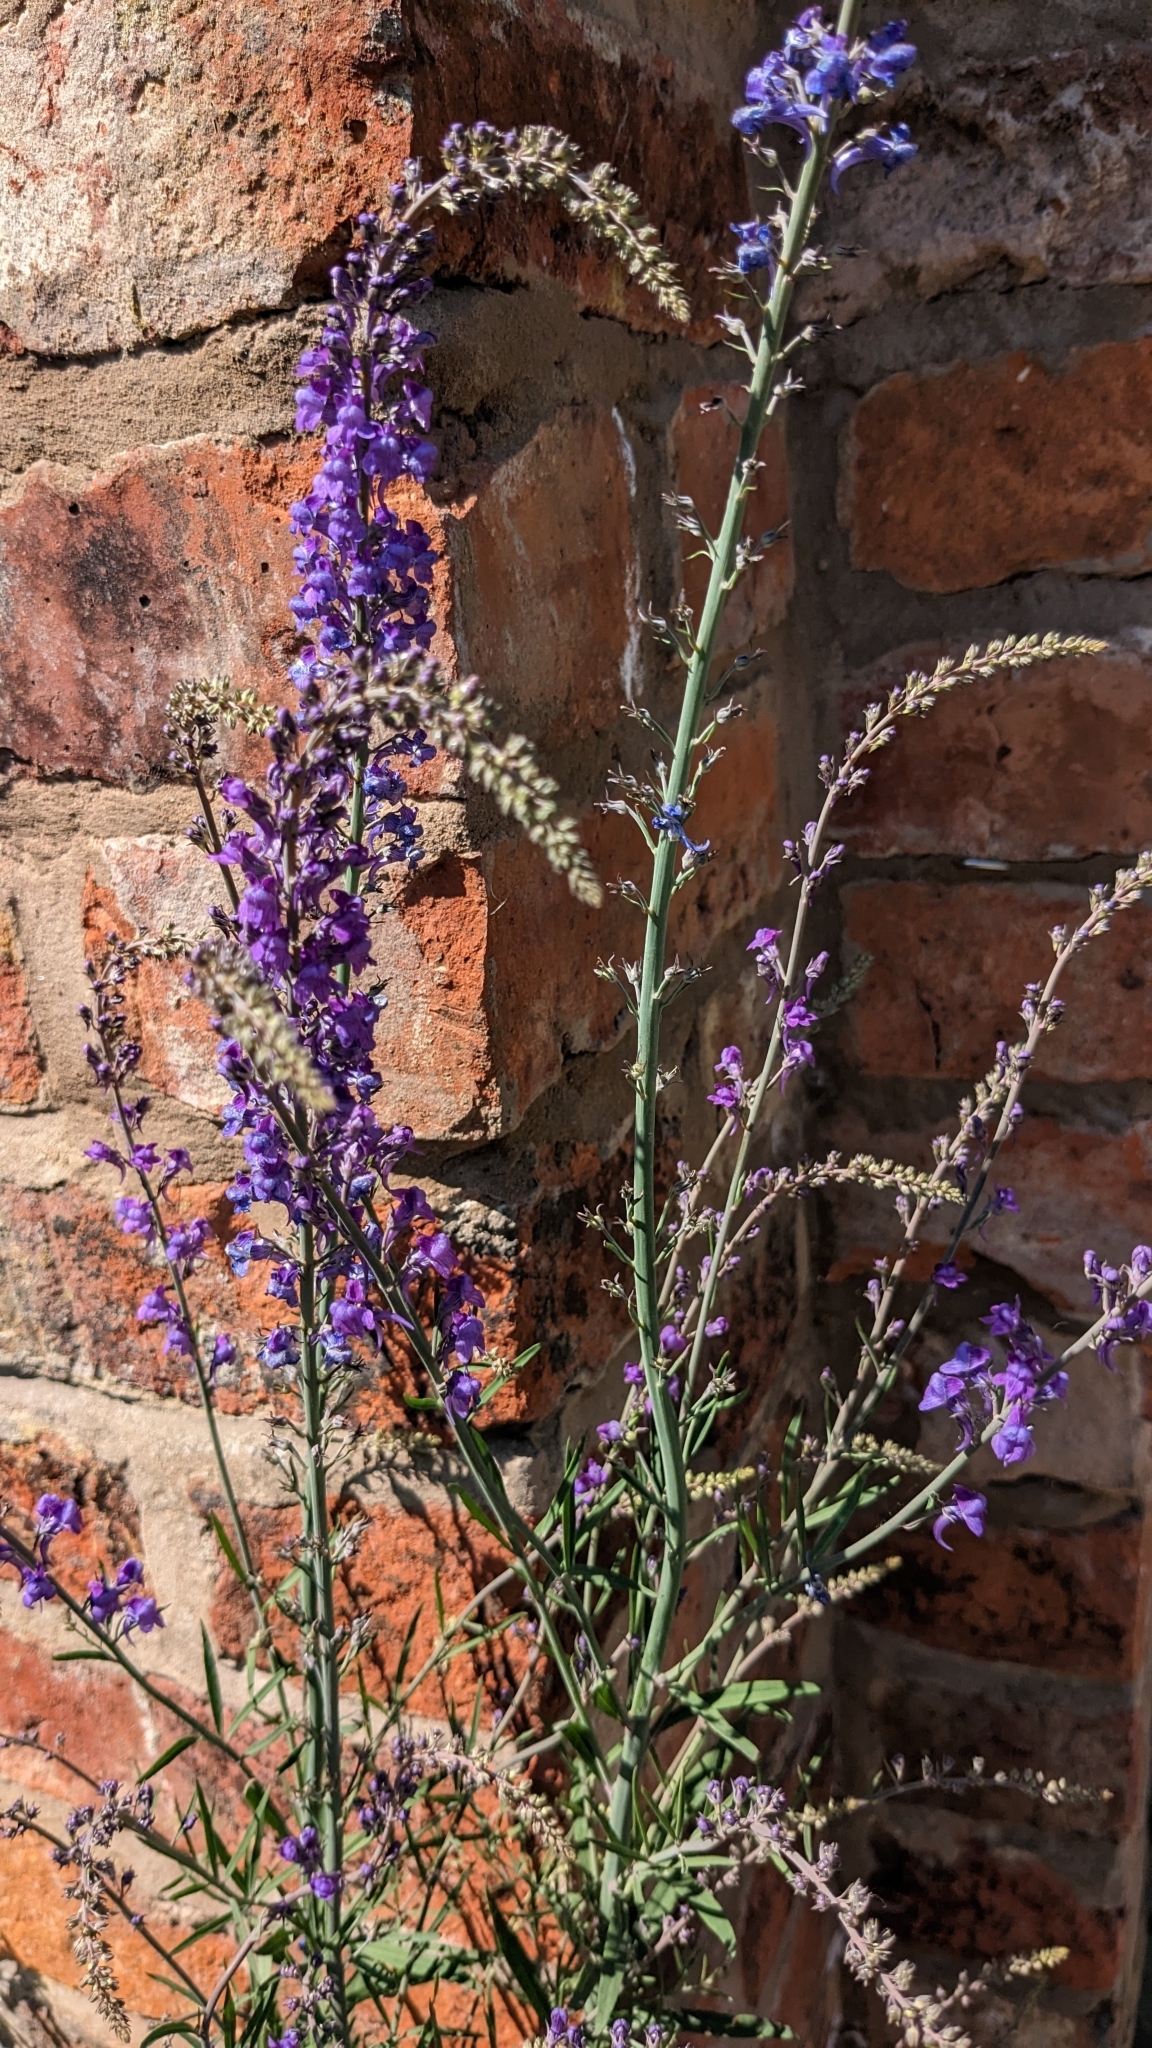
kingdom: Plantae
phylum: Tracheophyta
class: Magnoliopsida
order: Lamiales
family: Plantaginaceae
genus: Linaria
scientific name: Linaria purpurea
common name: Purple toadflax
